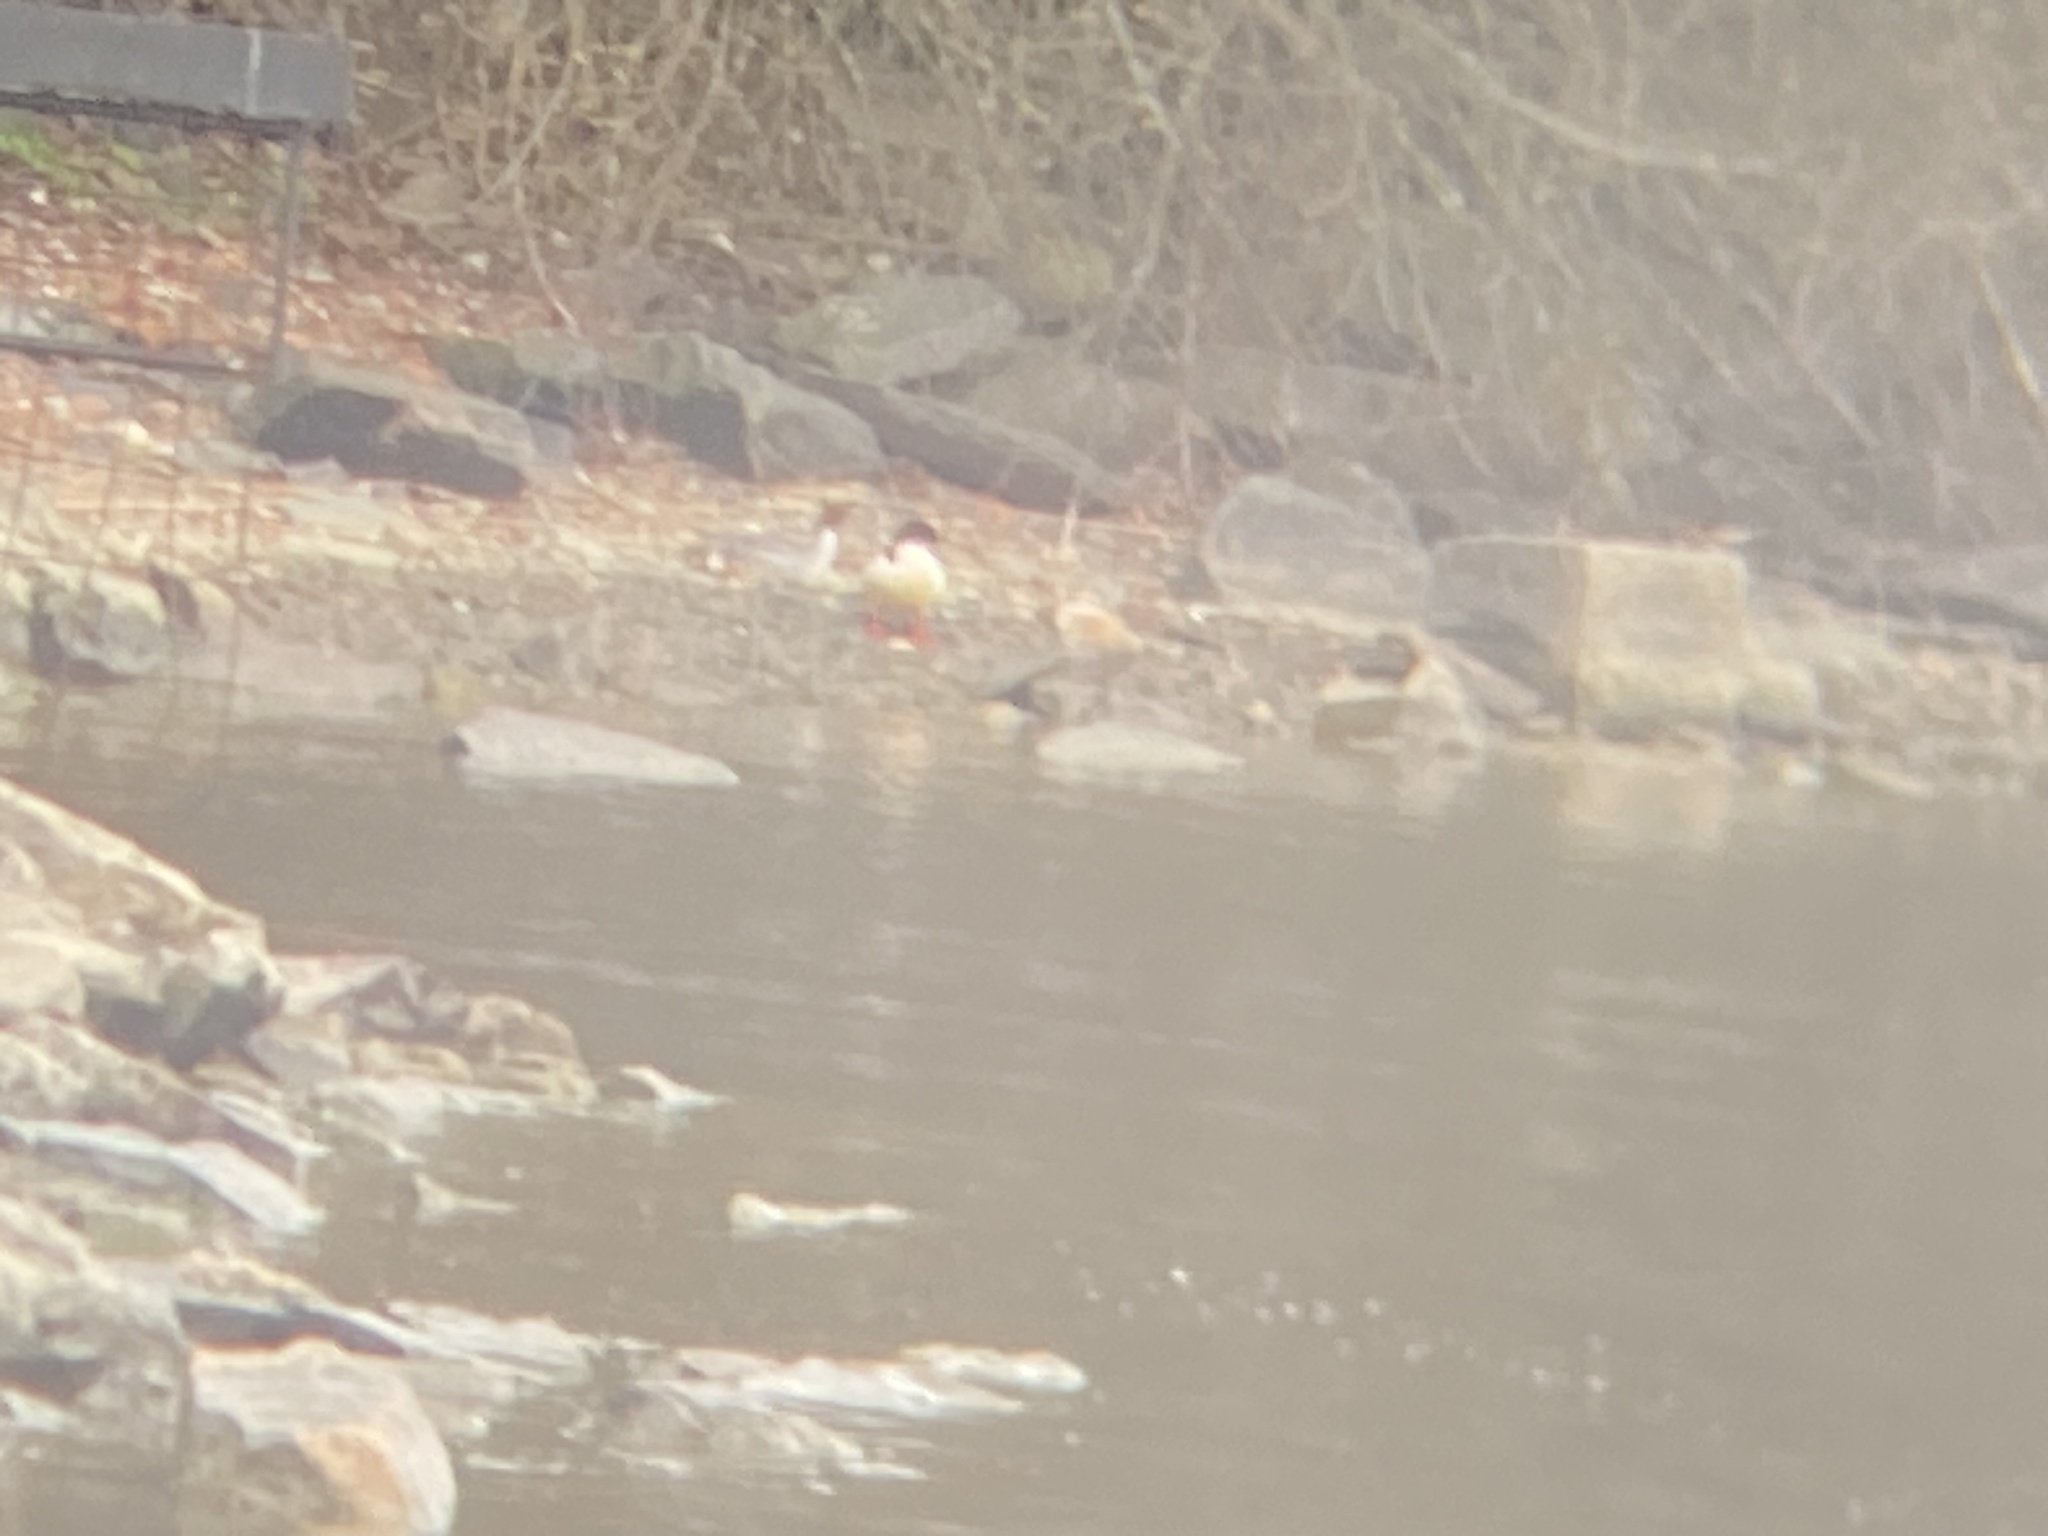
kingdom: Animalia
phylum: Chordata
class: Aves
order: Anseriformes
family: Anatidae
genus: Mergus
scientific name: Mergus merganser
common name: Common merganser
